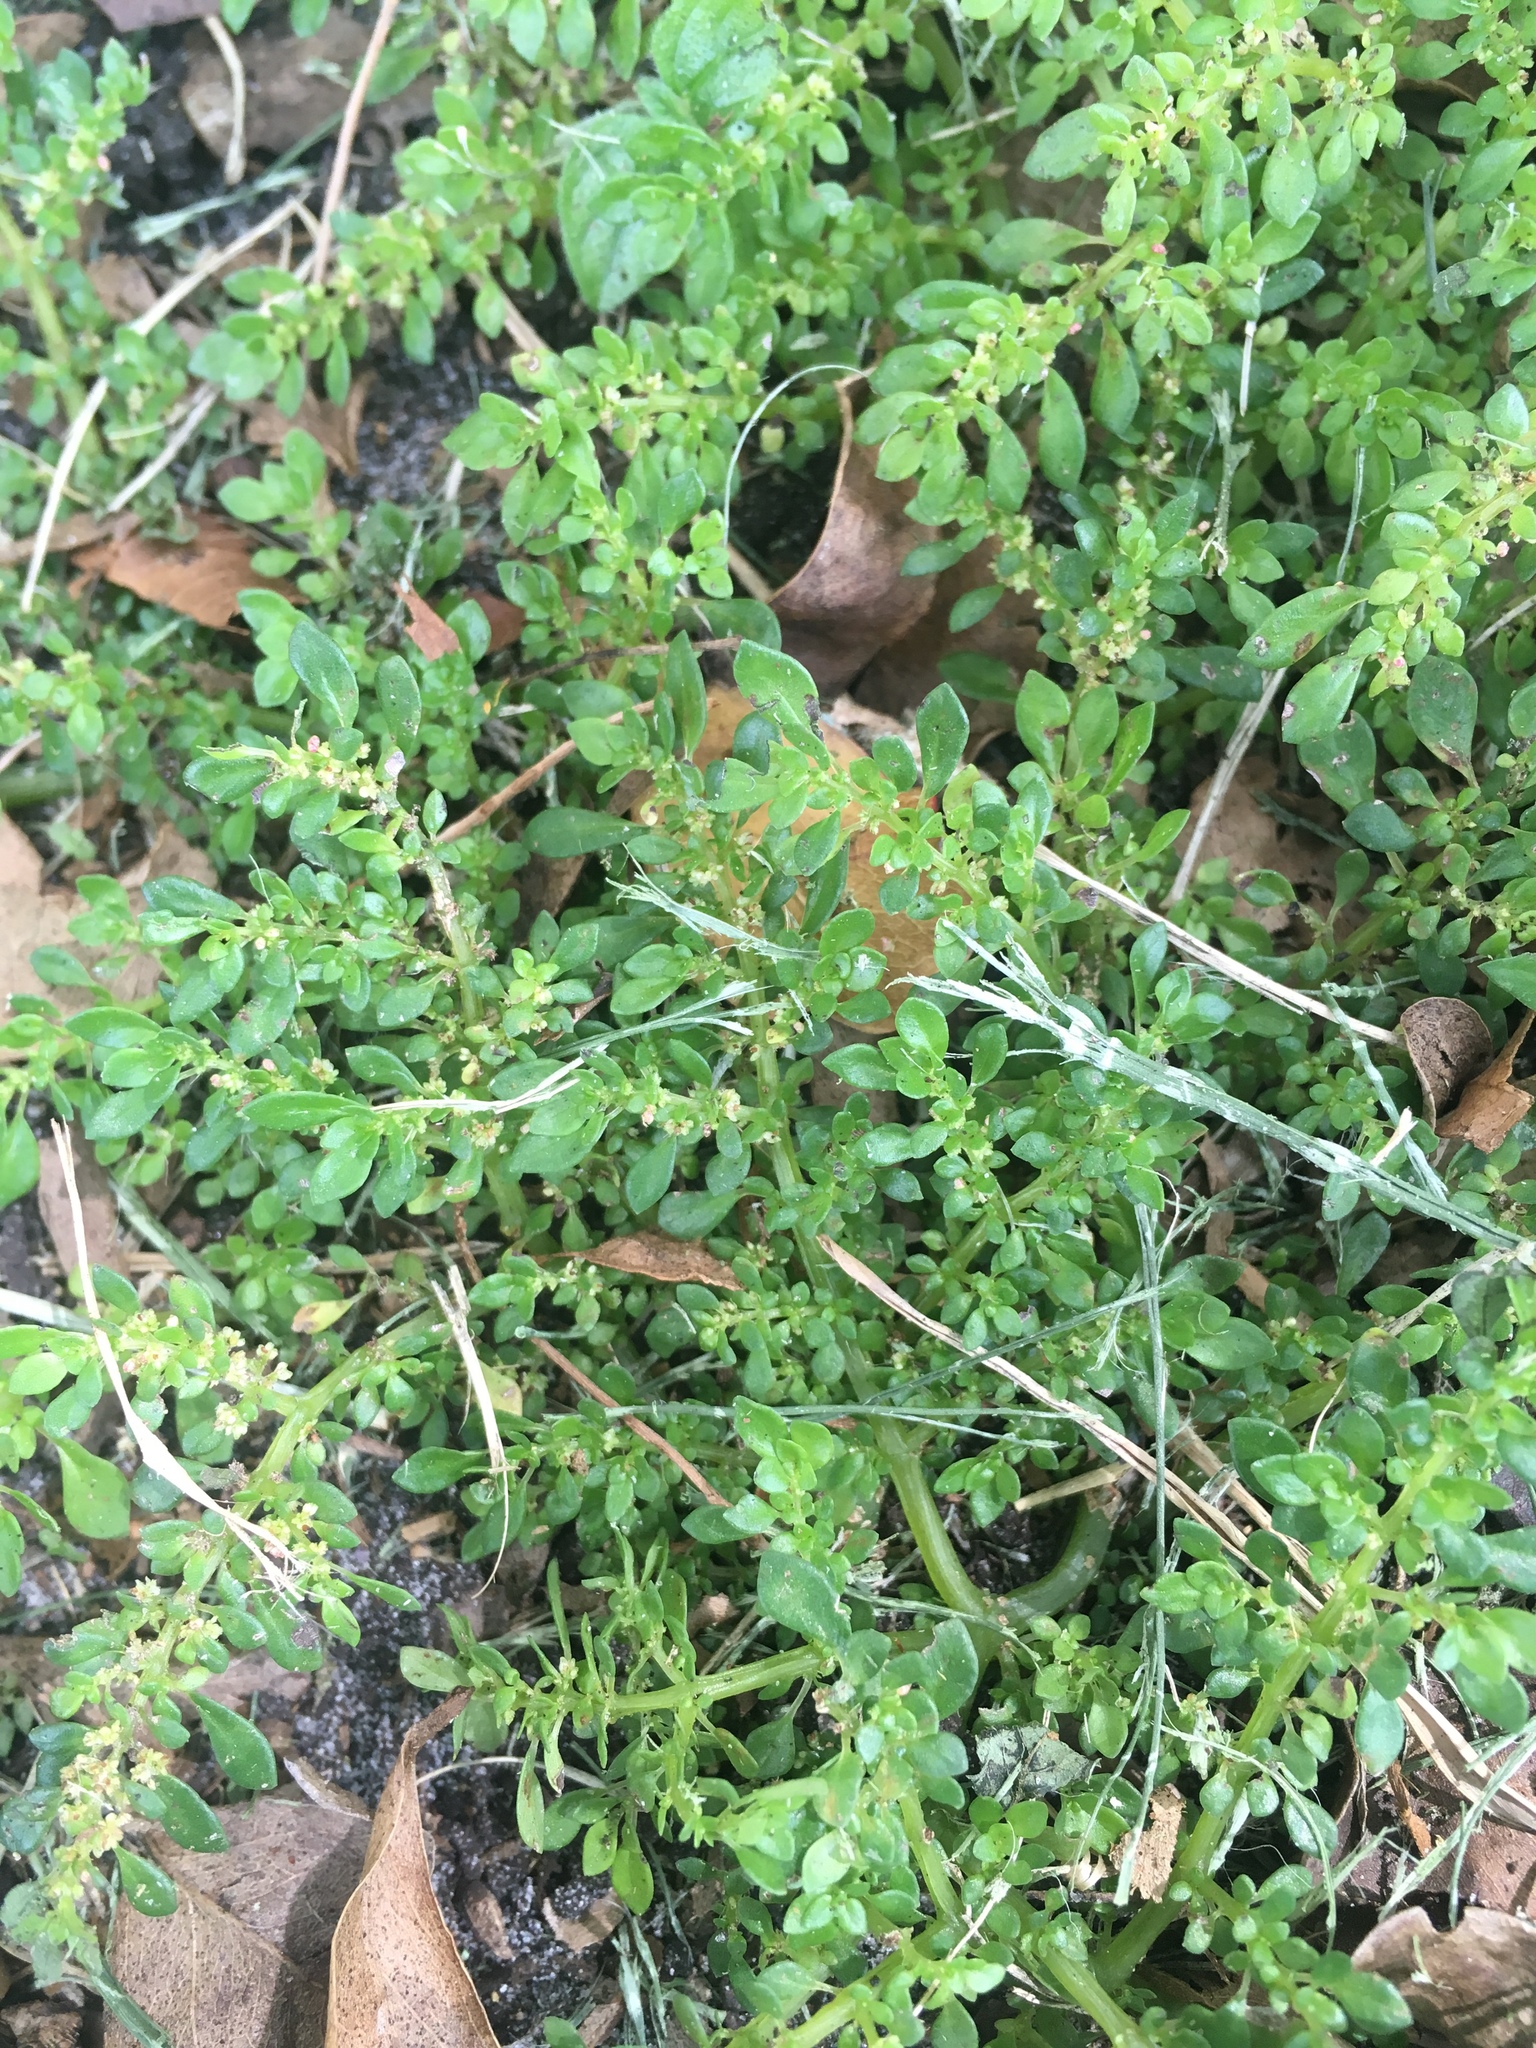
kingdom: Plantae
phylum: Tracheophyta
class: Magnoliopsida
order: Rosales
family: Urticaceae
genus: Pilea
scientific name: Pilea microphylla
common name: Artillery-plant
